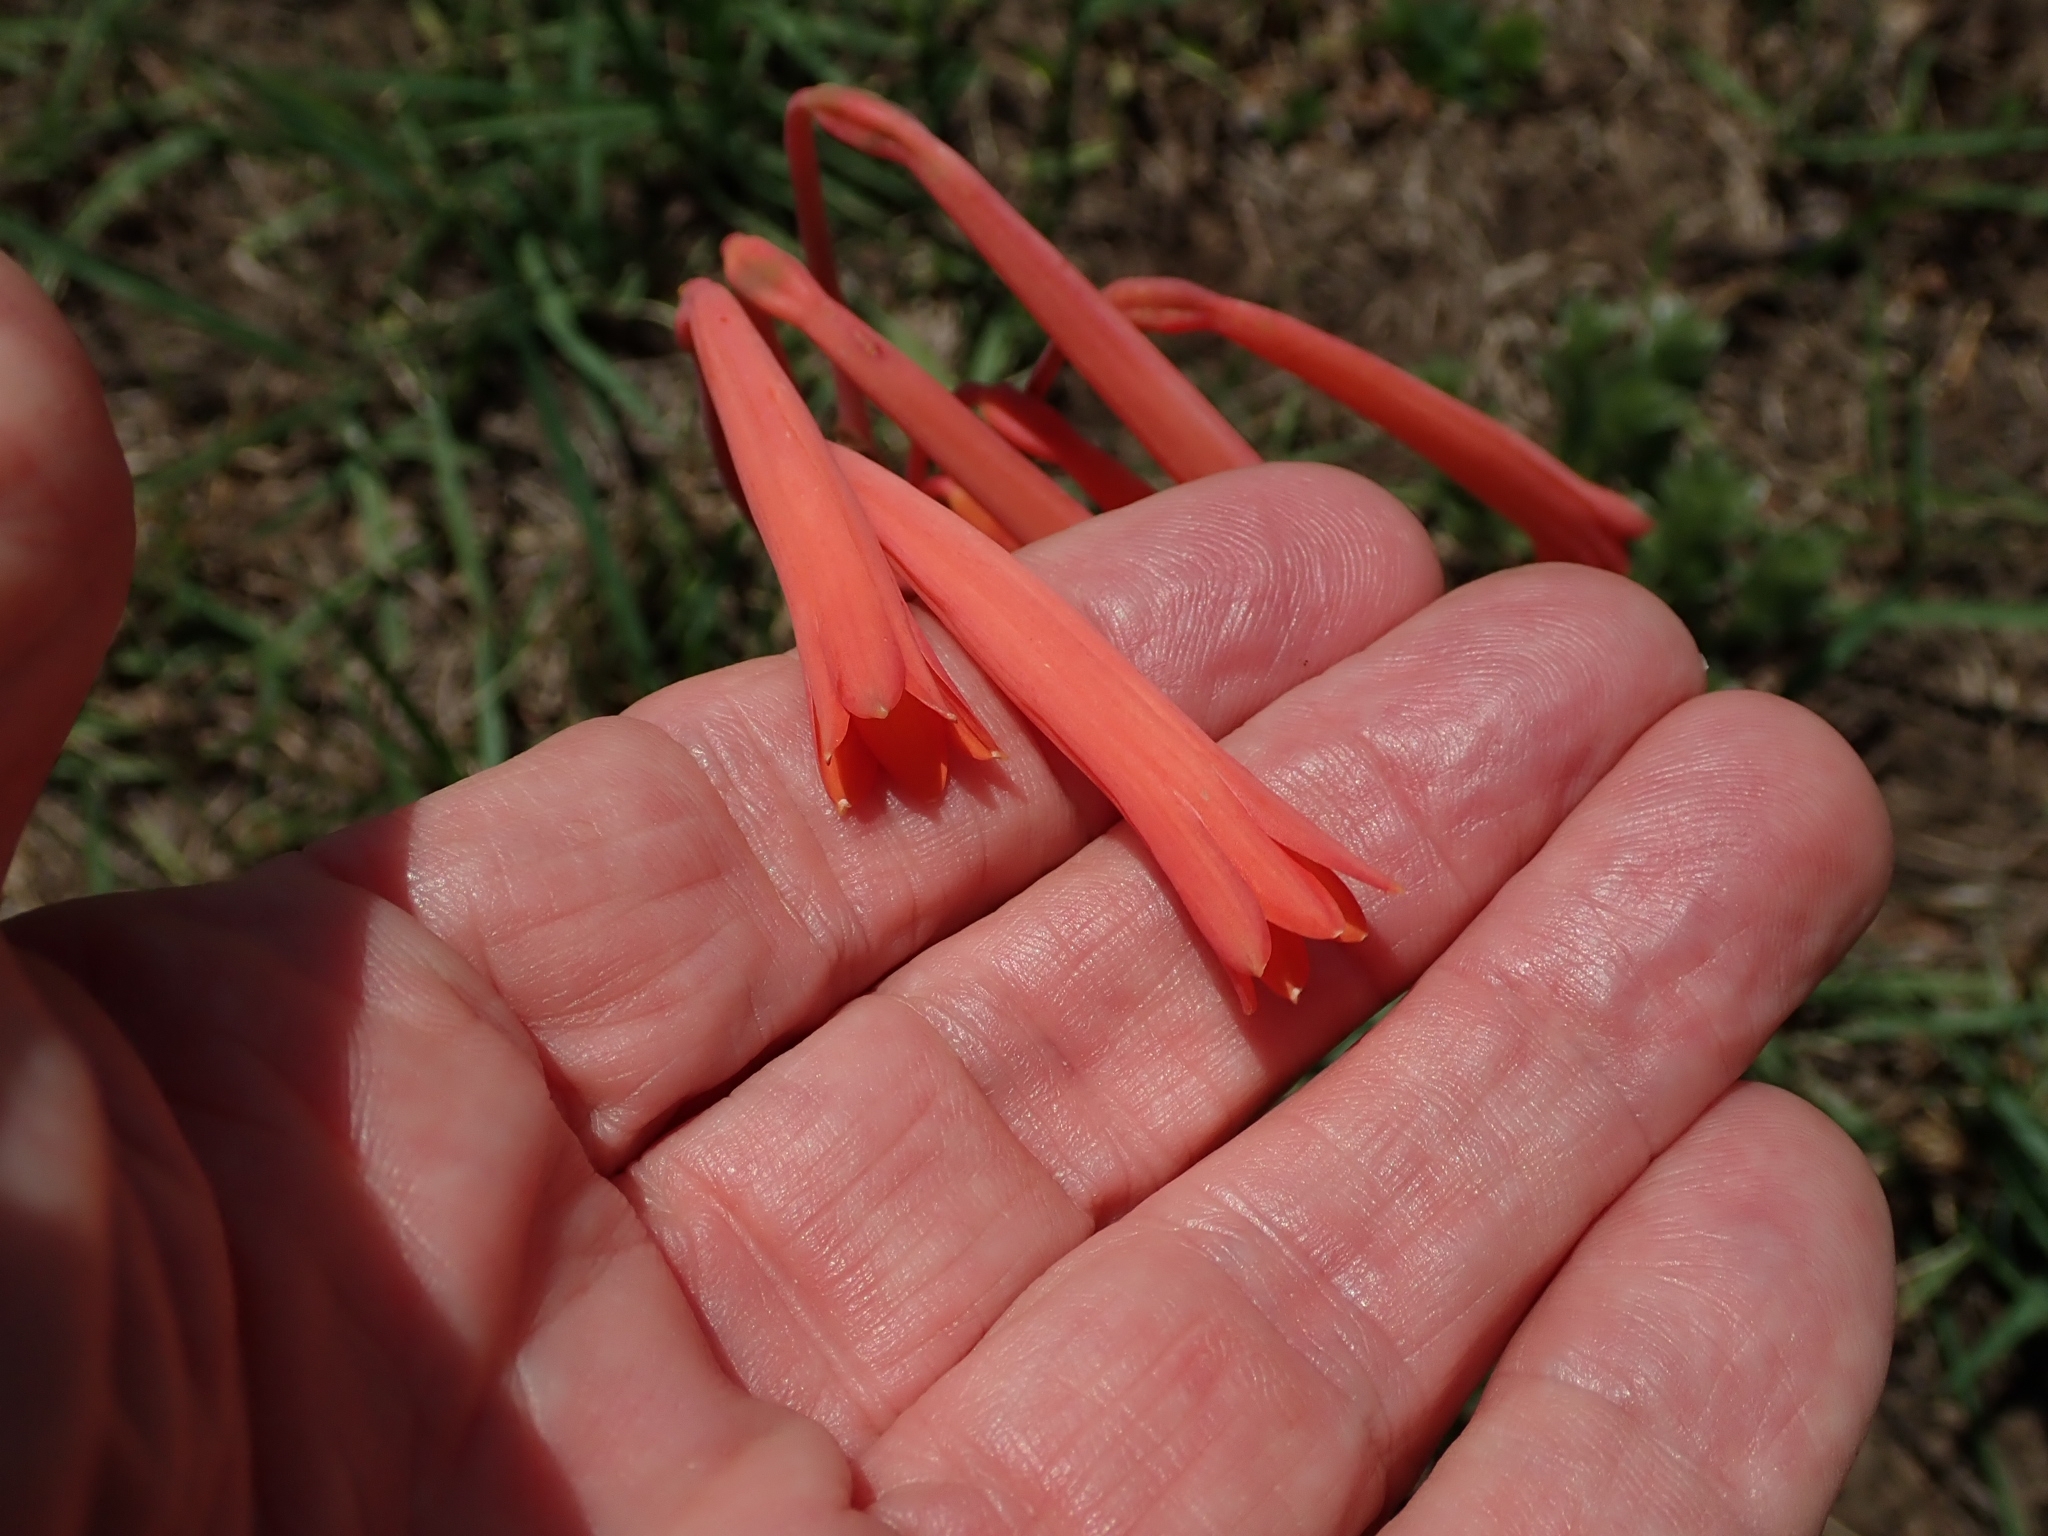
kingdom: Plantae
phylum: Tracheophyta
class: Liliopsida
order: Asparagales
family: Amaryllidaceae
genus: Cyrtanthus
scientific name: Cyrtanthus tuckii
